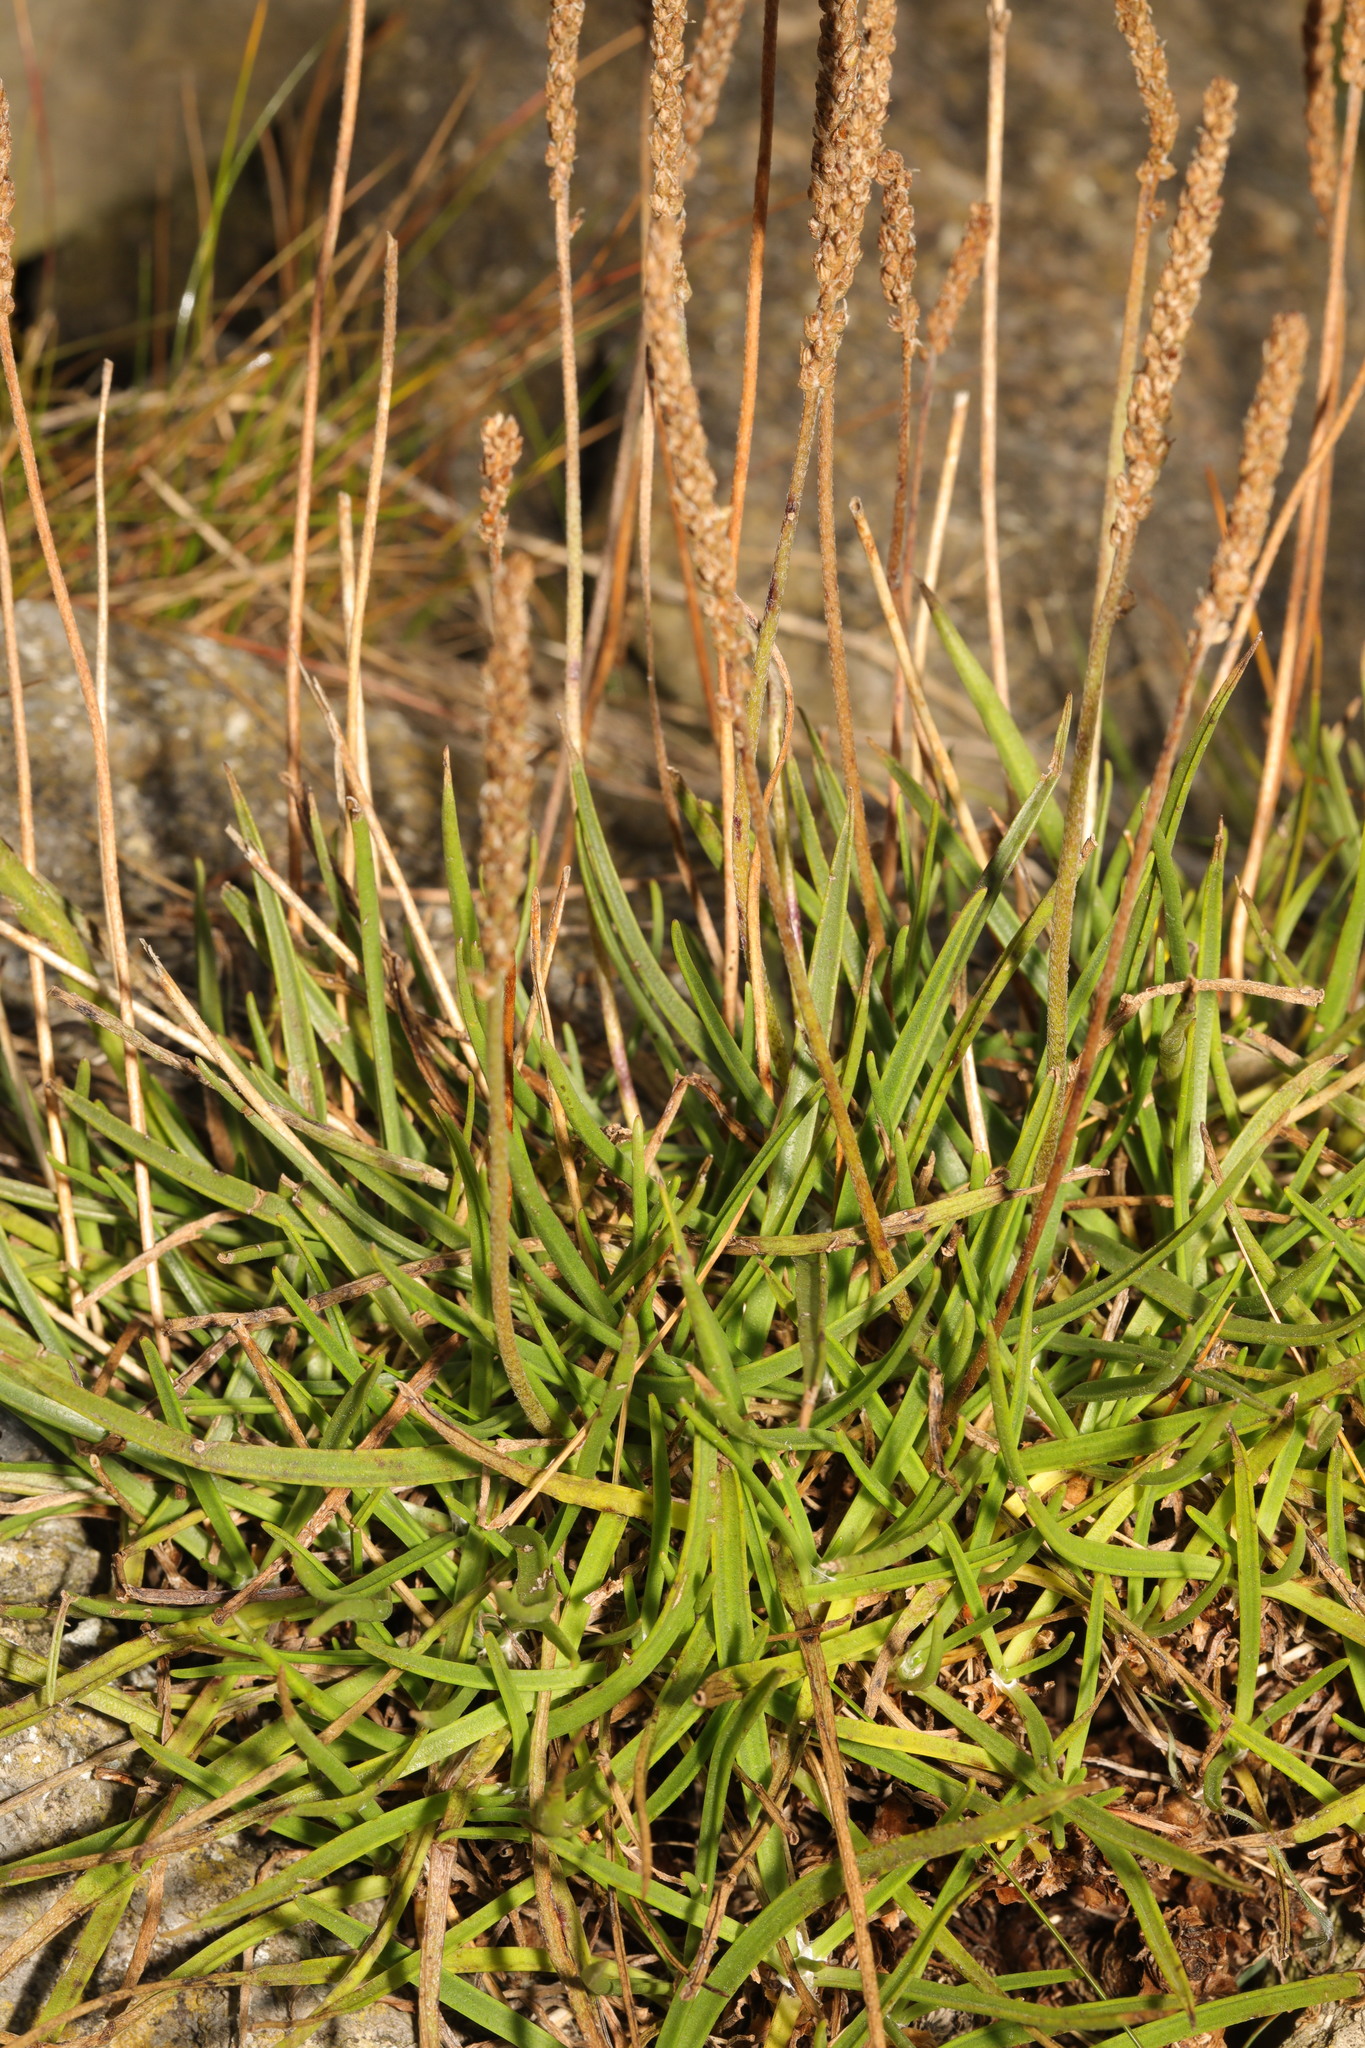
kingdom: Plantae
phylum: Tracheophyta
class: Magnoliopsida
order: Lamiales
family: Plantaginaceae
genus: Plantago
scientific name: Plantago maritima
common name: Sea plantain
